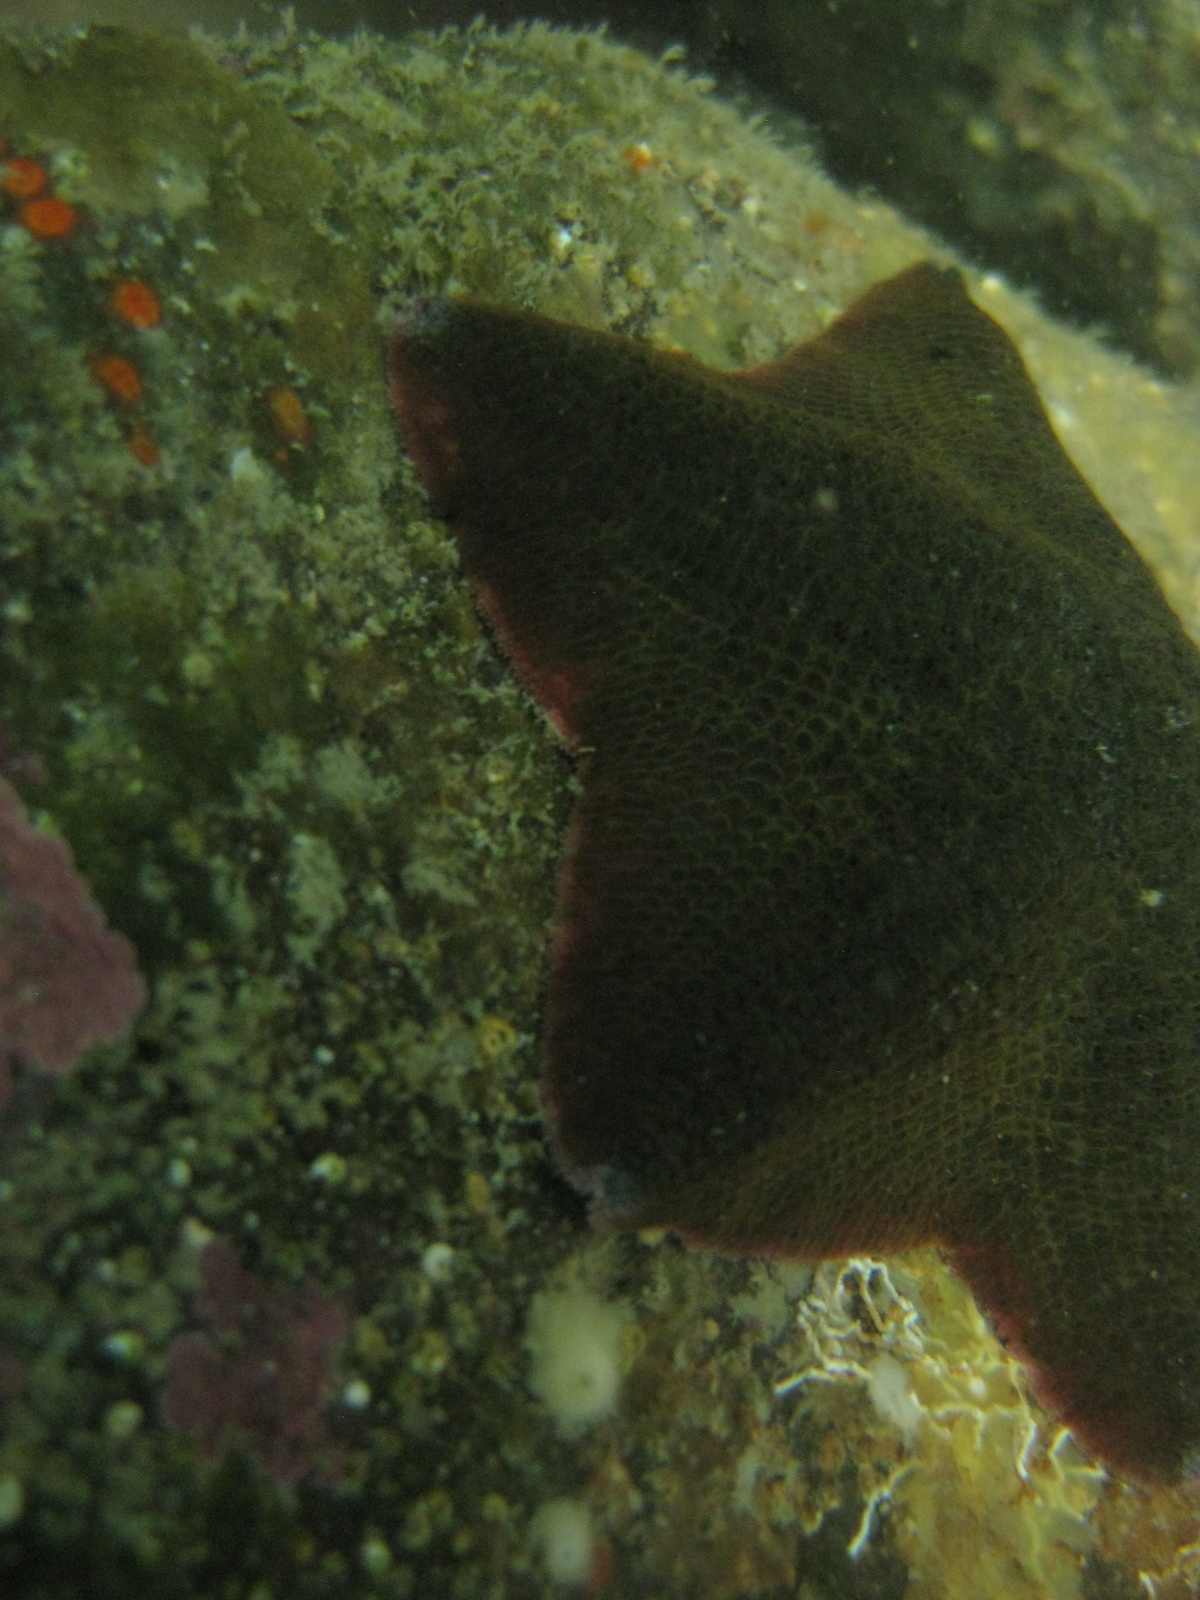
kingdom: Animalia
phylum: Echinodermata
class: Asteroidea
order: Valvatida
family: Asterinidae
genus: Patiriella
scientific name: Patiriella regularis
